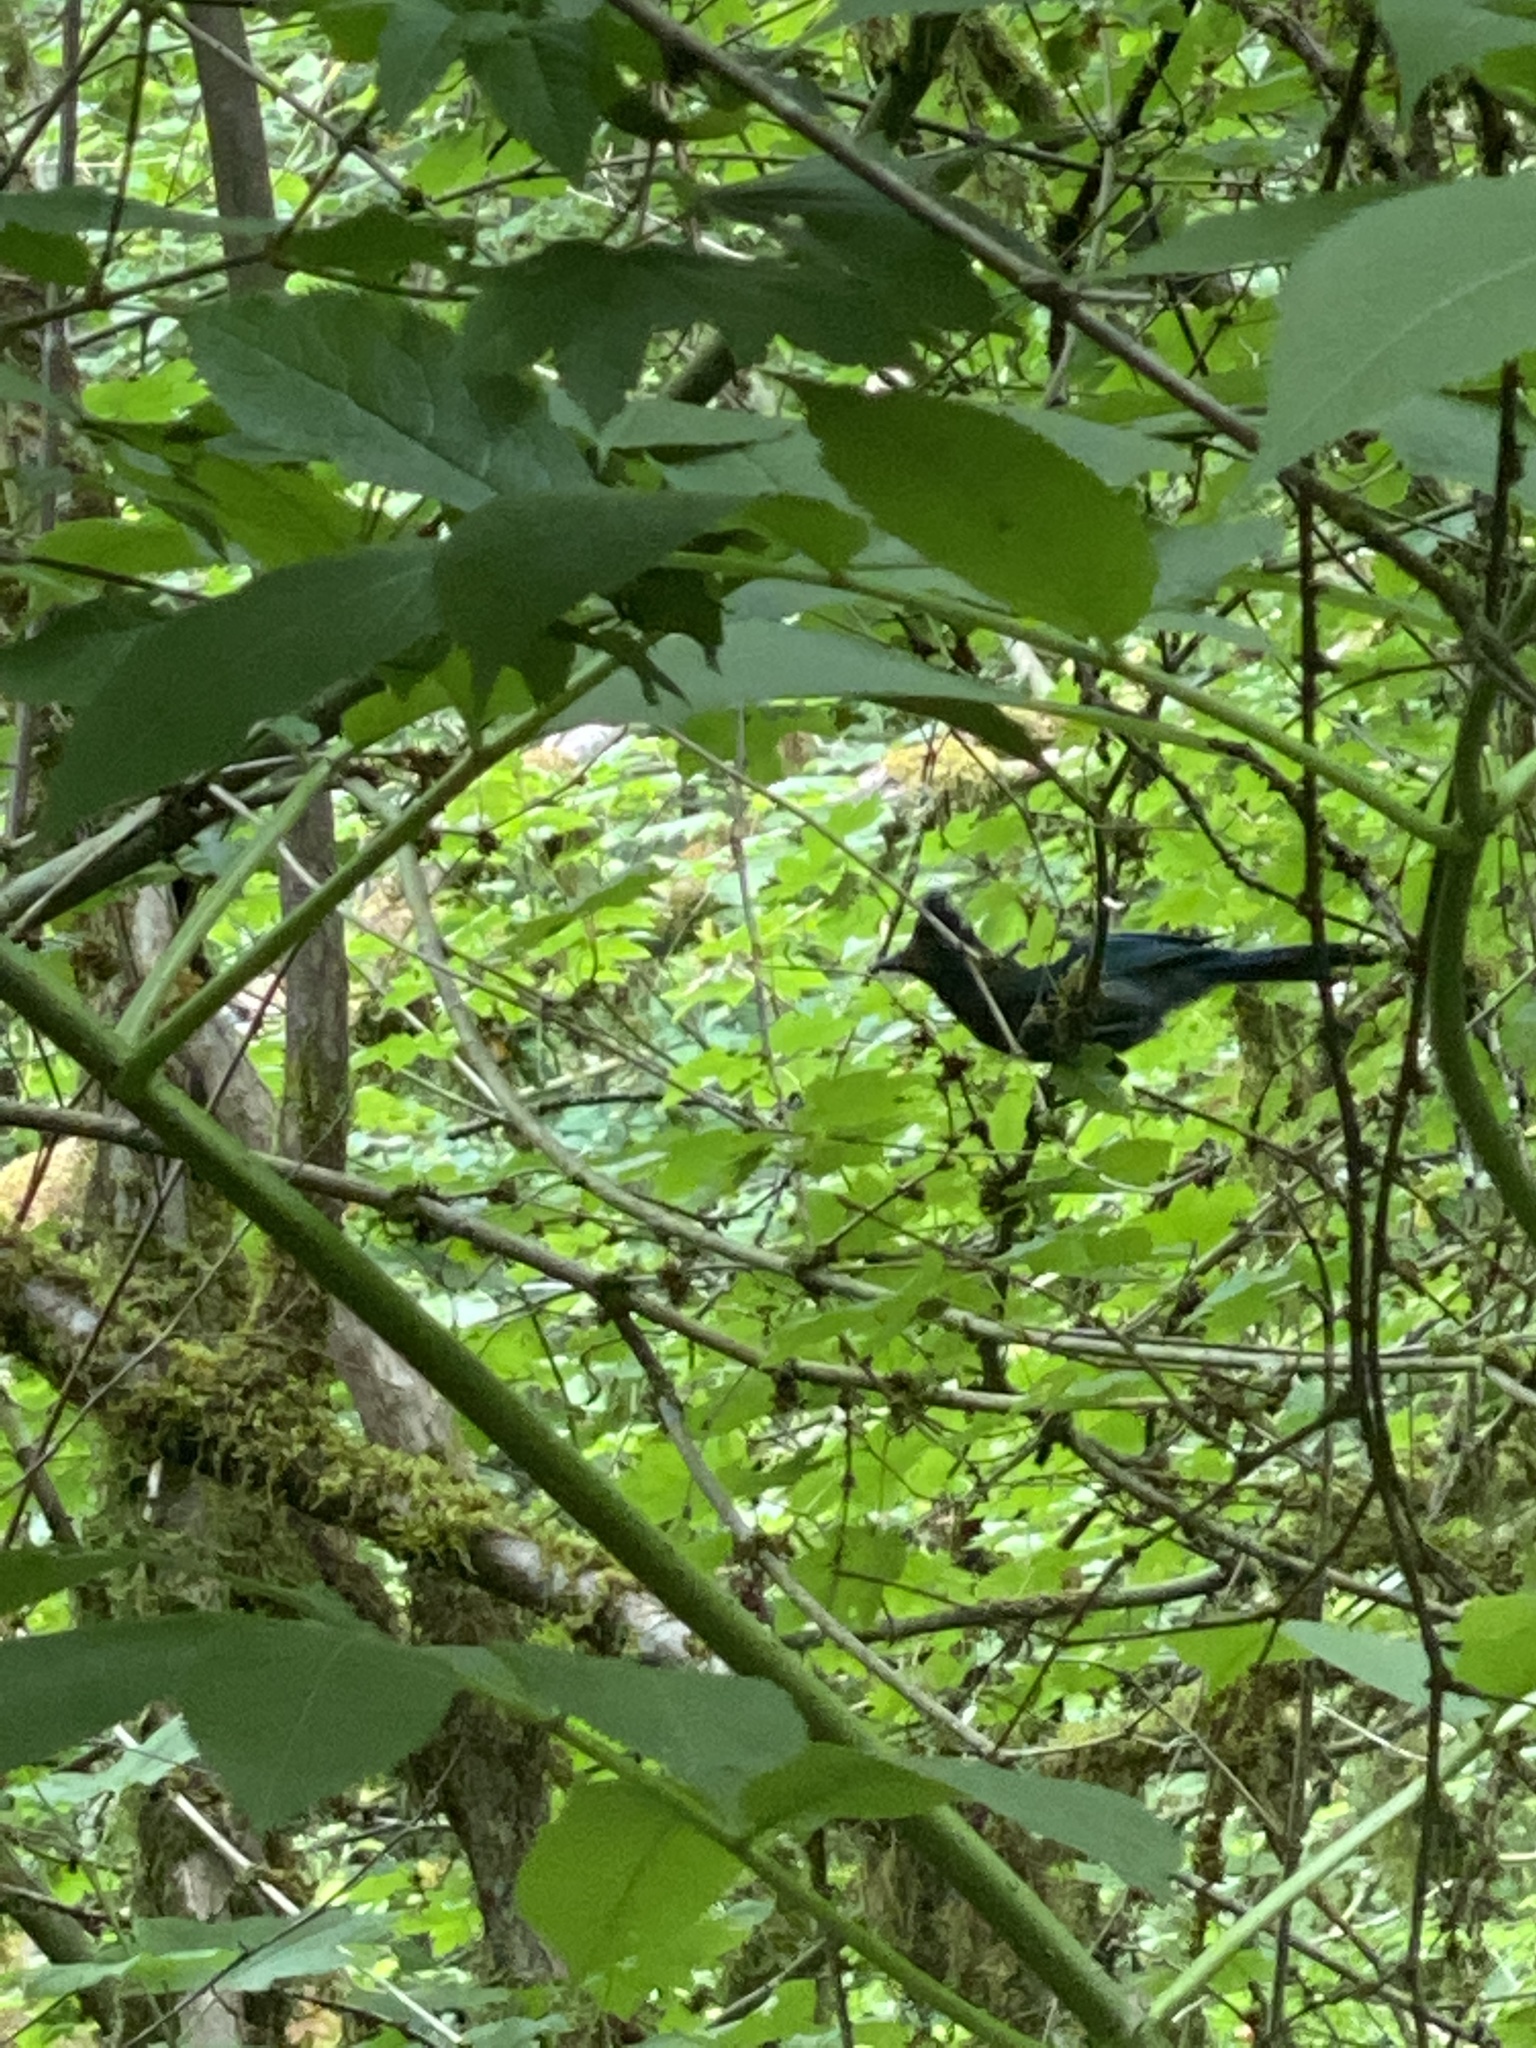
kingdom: Animalia
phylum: Chordata
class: Aves
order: Passeriformes
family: Corvidae
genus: Cyanocitta
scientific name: Cyanocitta stelleri
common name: Steller's jay
